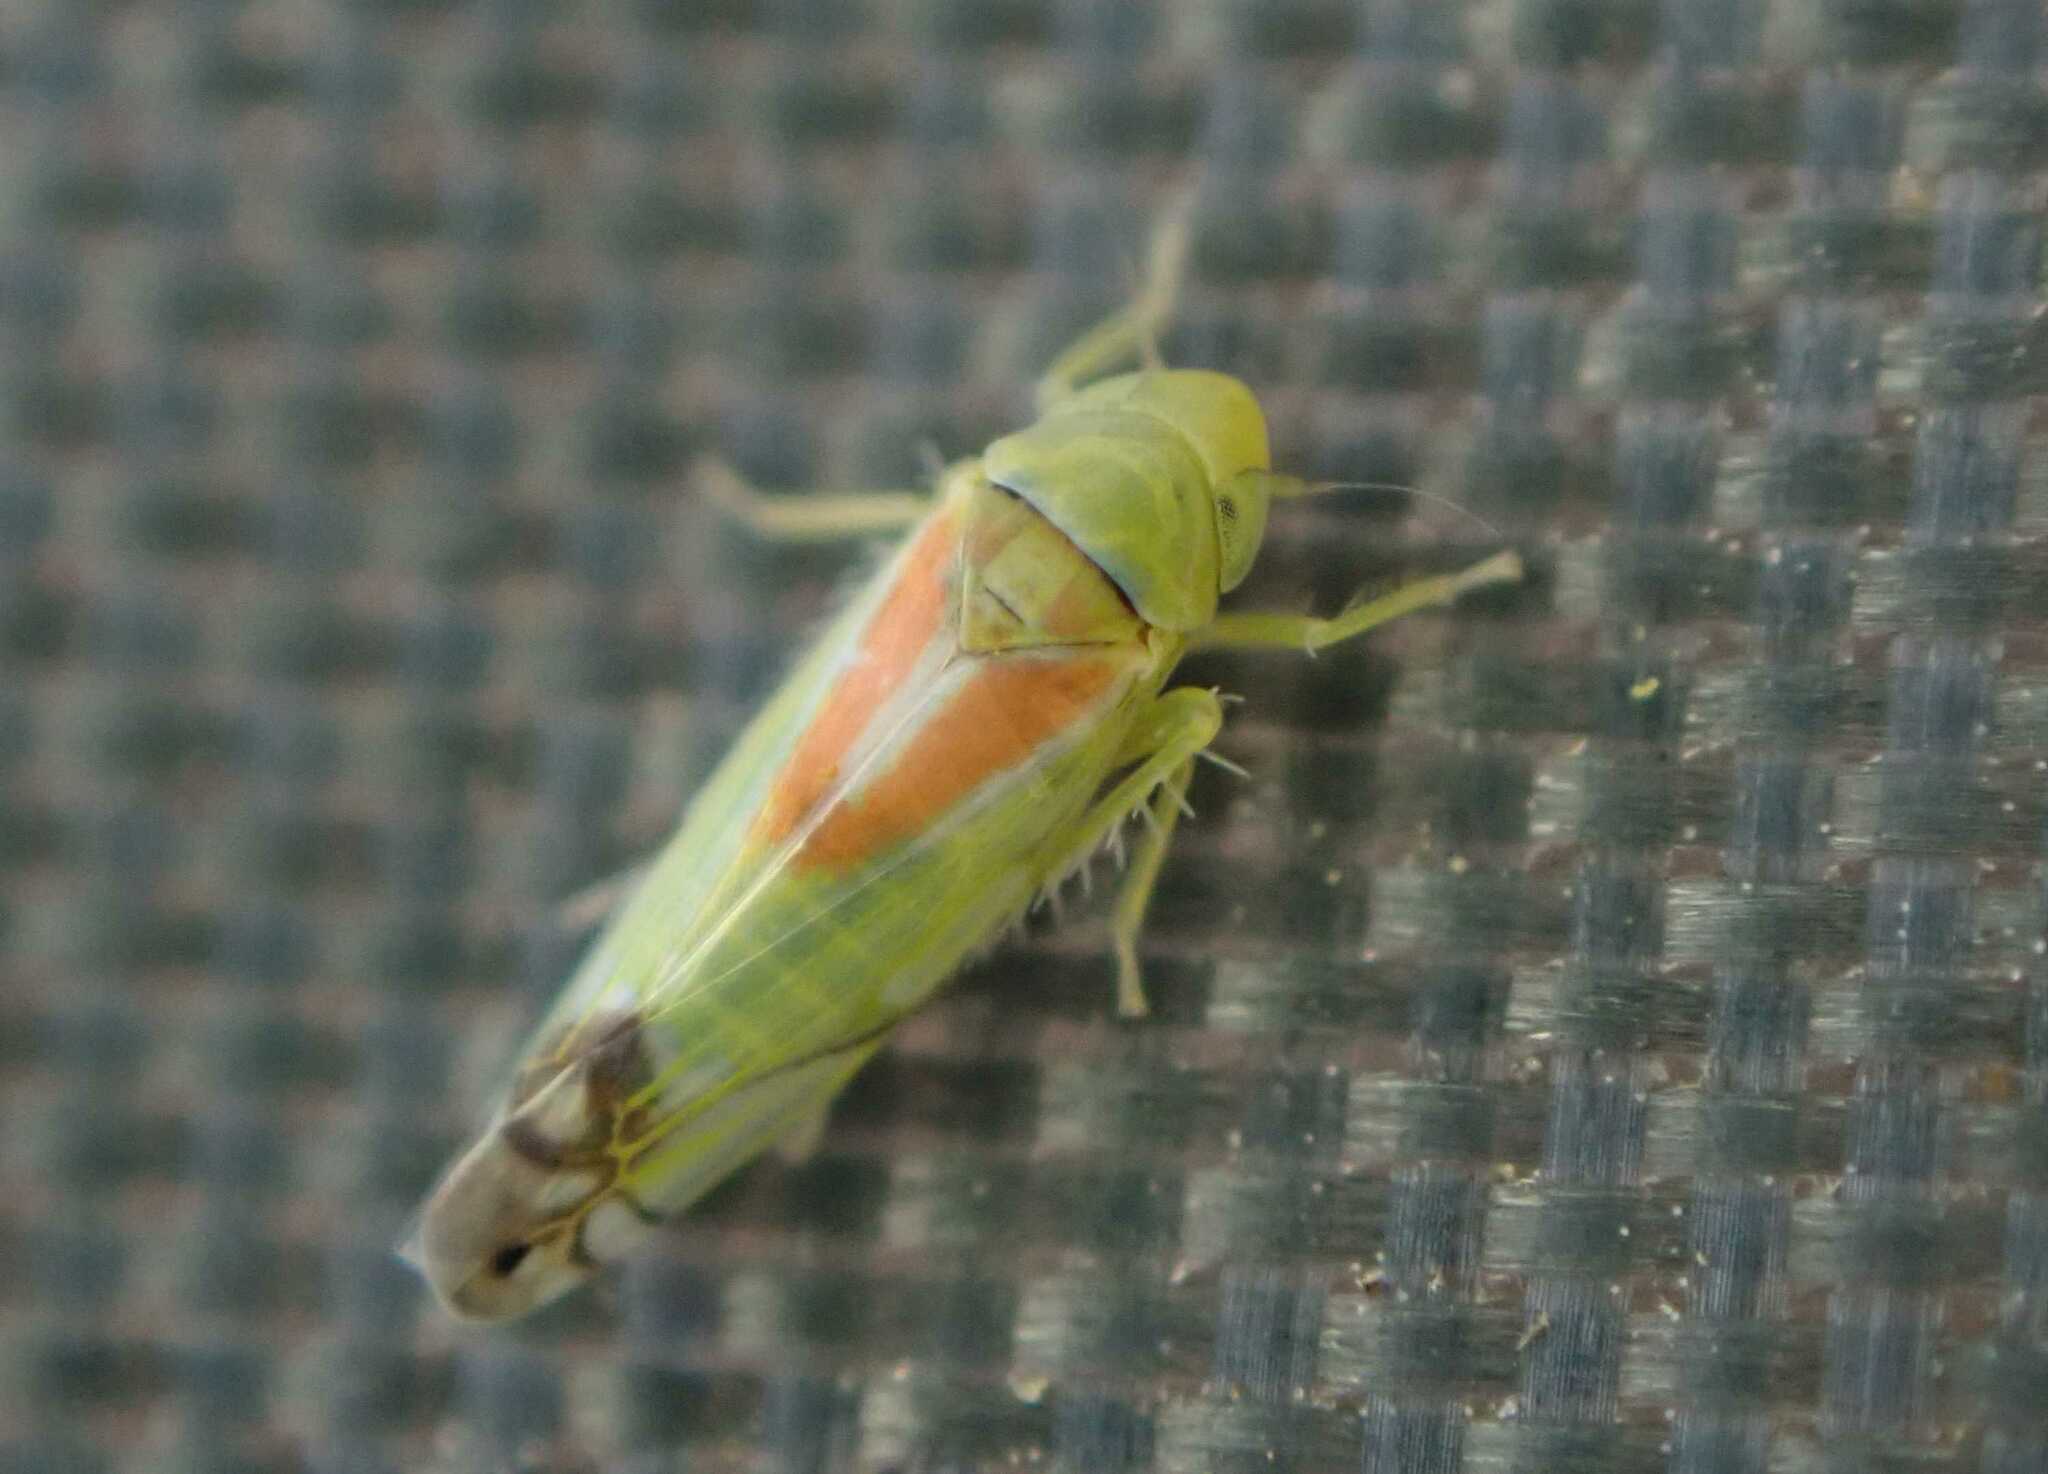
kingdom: Animalia
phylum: Arthropoda
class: Insecta
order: Hemiptera
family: Cicadellidae
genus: Zyginella
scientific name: Zyginella pulchra
